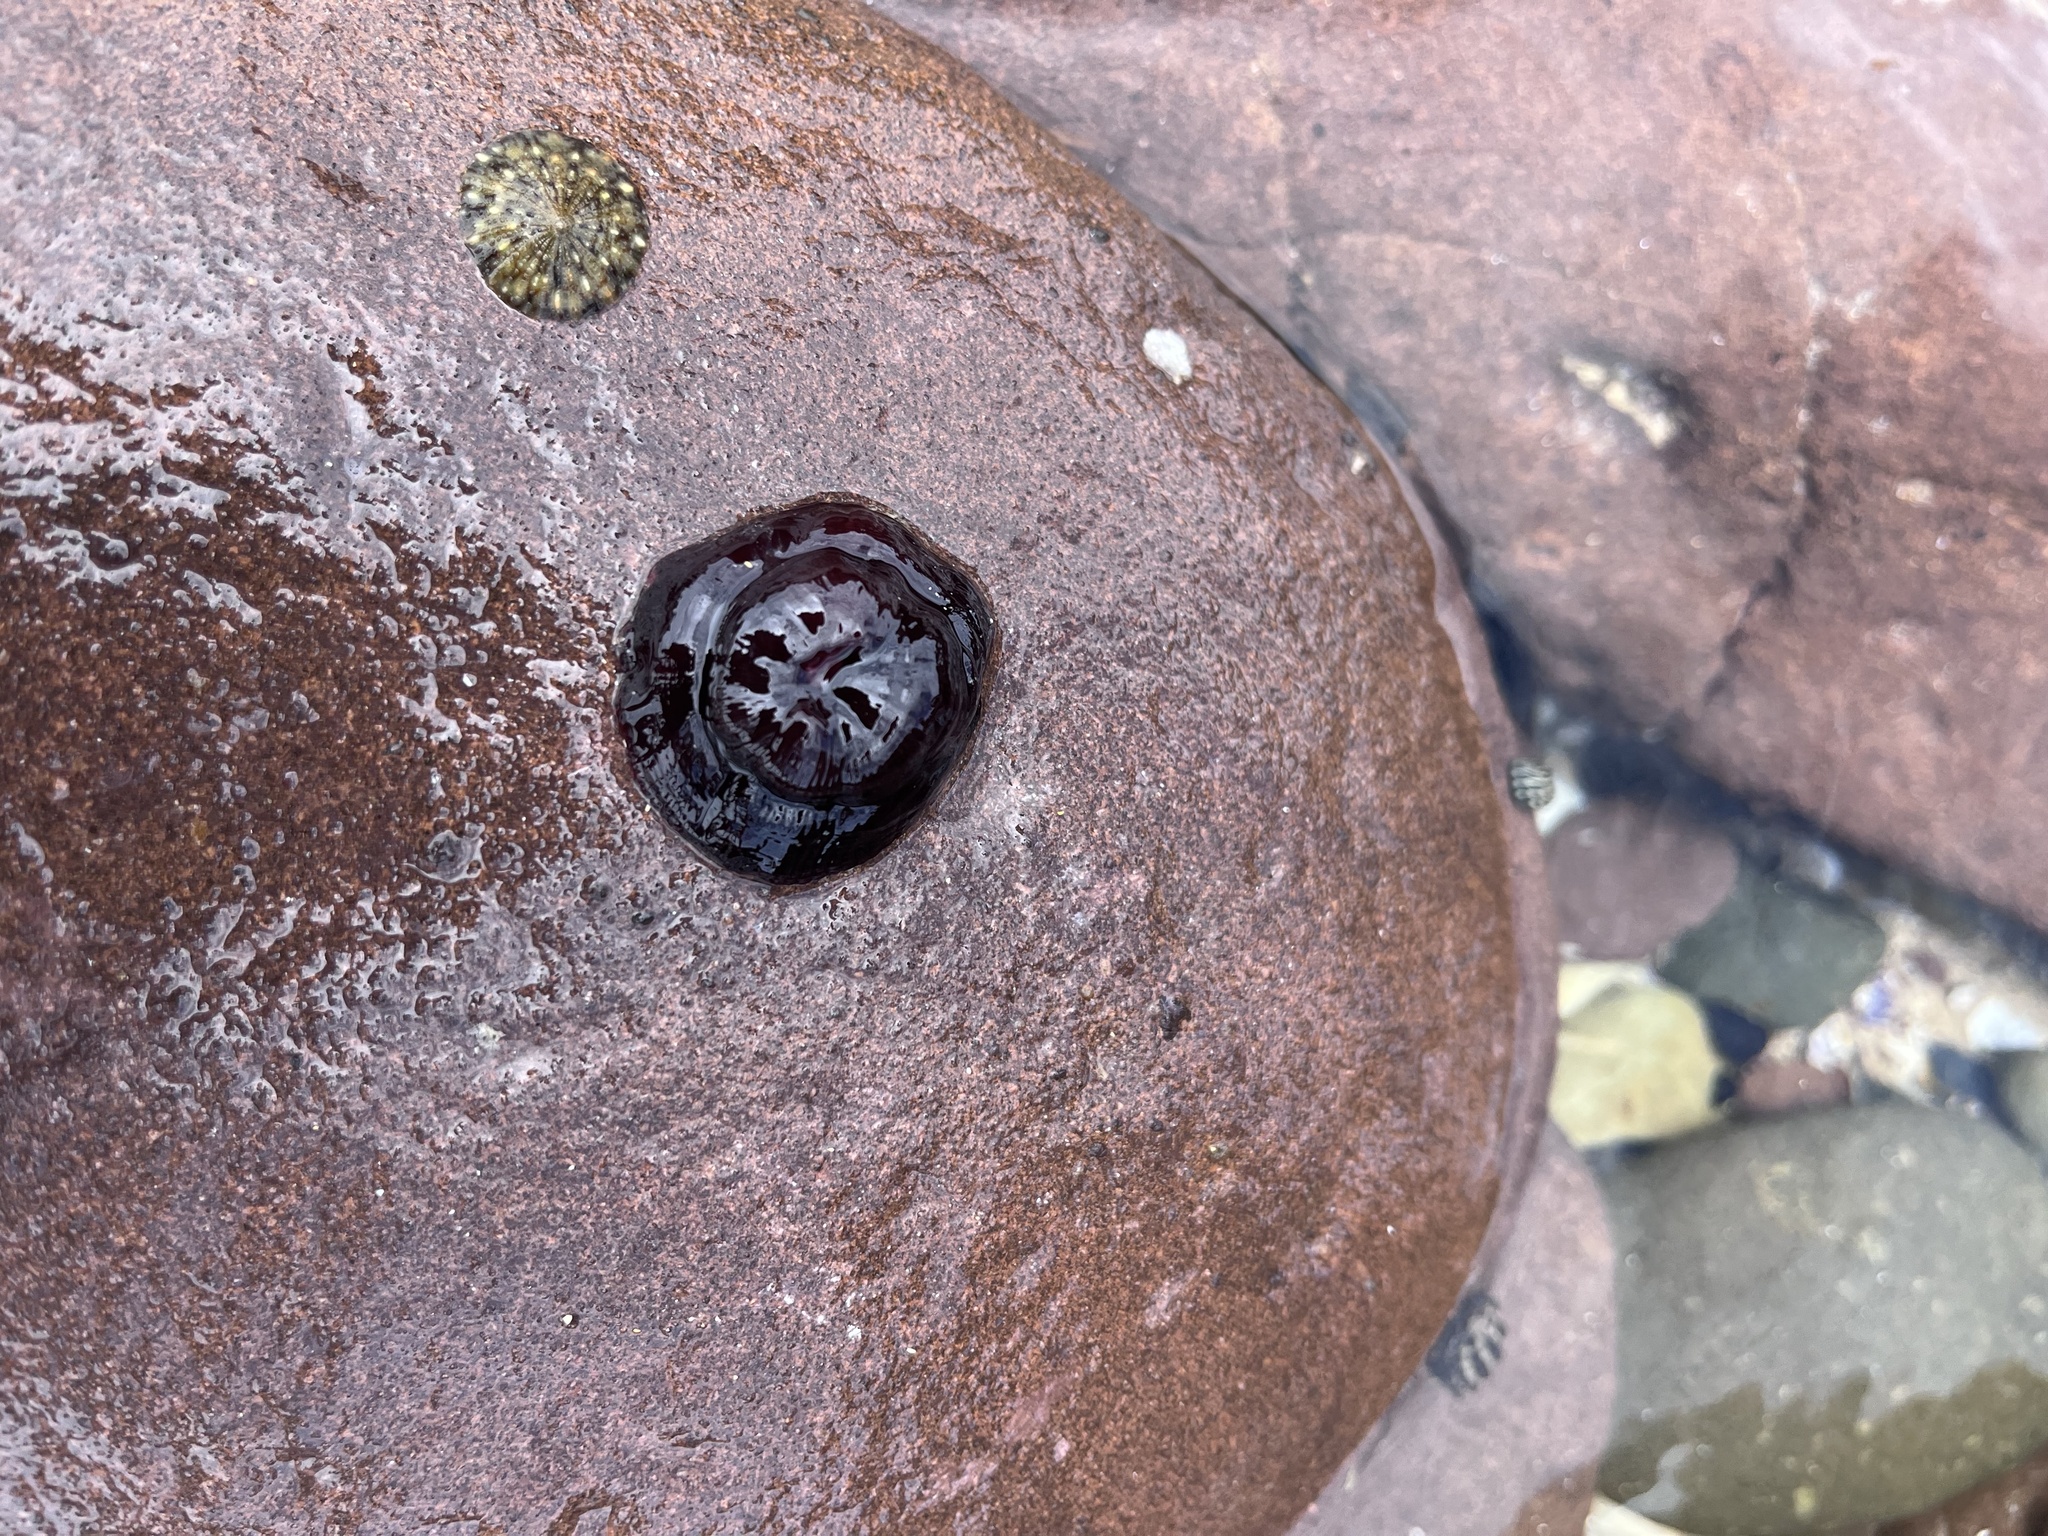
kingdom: Animalia
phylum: Cnidaria
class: Anthozoa
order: Actiniaria
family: Actiniidae
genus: Actinia
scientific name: Actinia tenebrosa
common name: Waratah anemone
